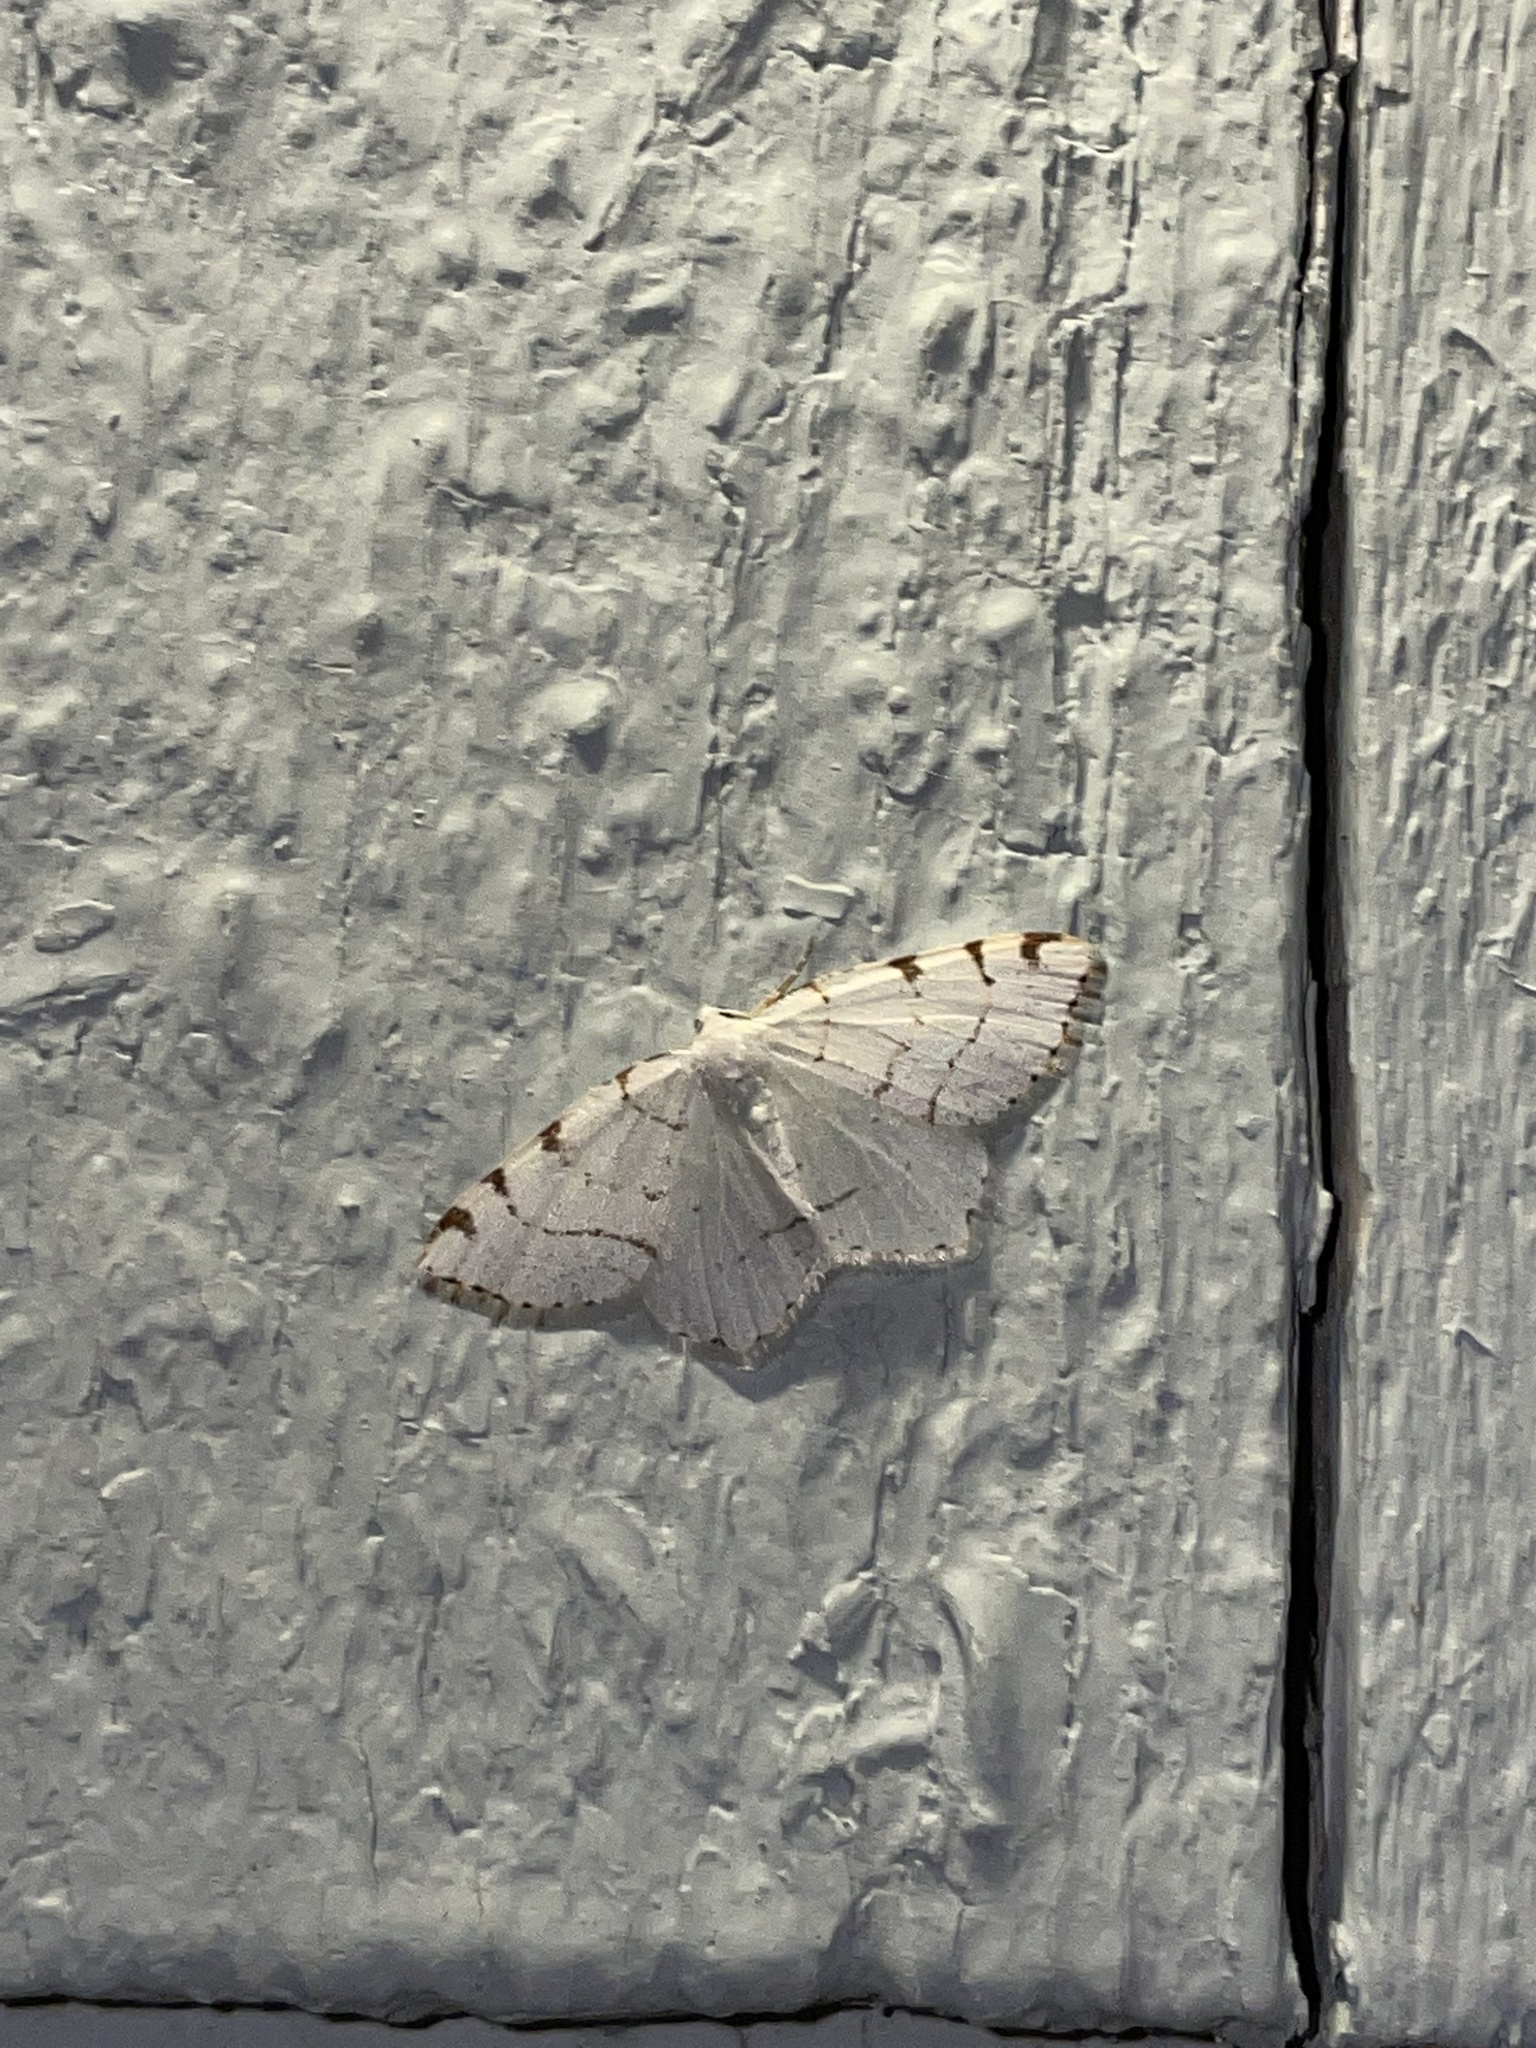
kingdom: Animalia
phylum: Arthropoda
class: Insecta
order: Lepidoptera
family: Geometridae
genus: Macaria
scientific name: Macaria pustularia
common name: Lesser maple spanworm moth
